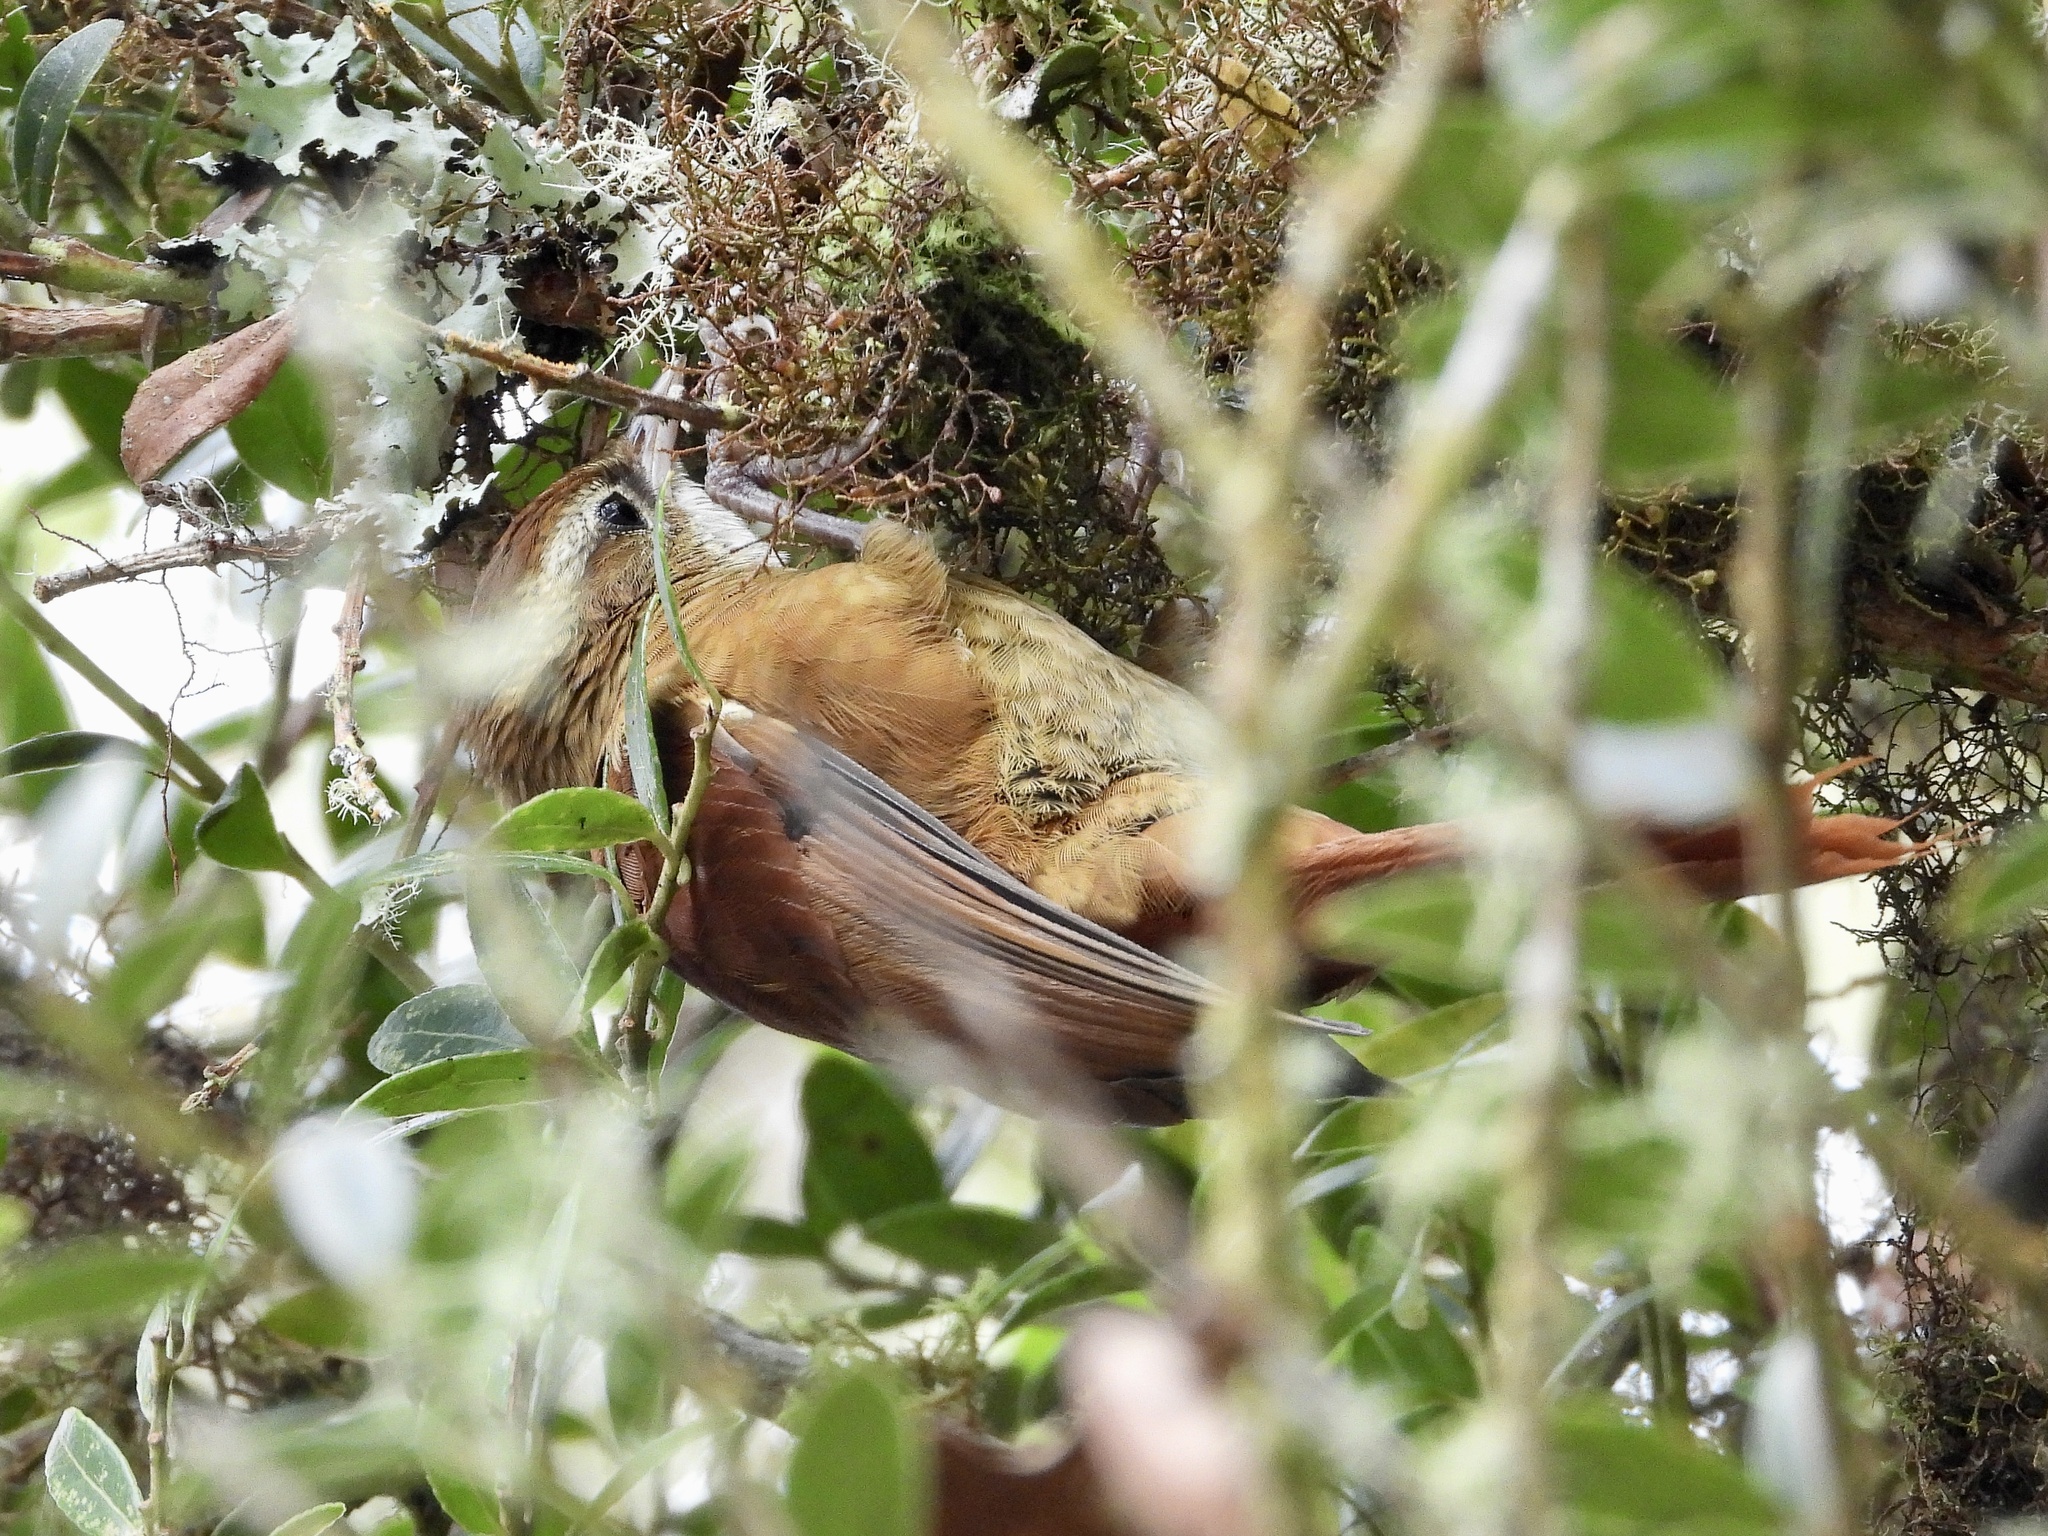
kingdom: Animalia
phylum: Chordata
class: Aves
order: Passeriformes
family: Furnariidae
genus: Margarornis
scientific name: Margarornis rubiginosus
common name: Ruddy treerunner
